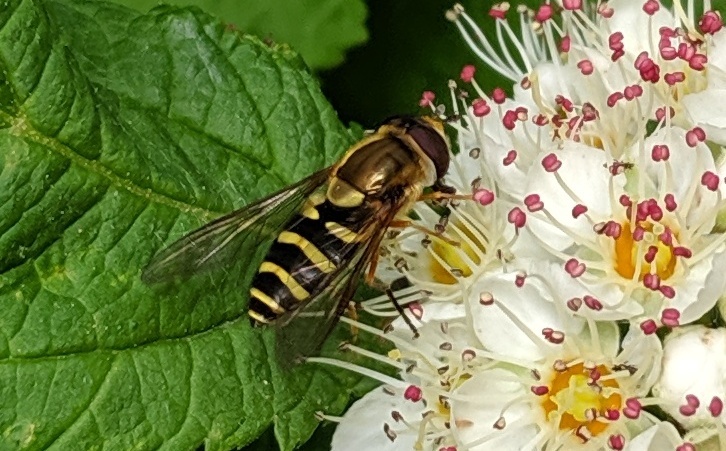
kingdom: Animalia
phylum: Arthropoda
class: Insecta
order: Diptera
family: Syrphidae
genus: Syrphus
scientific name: Syrphus opinator
